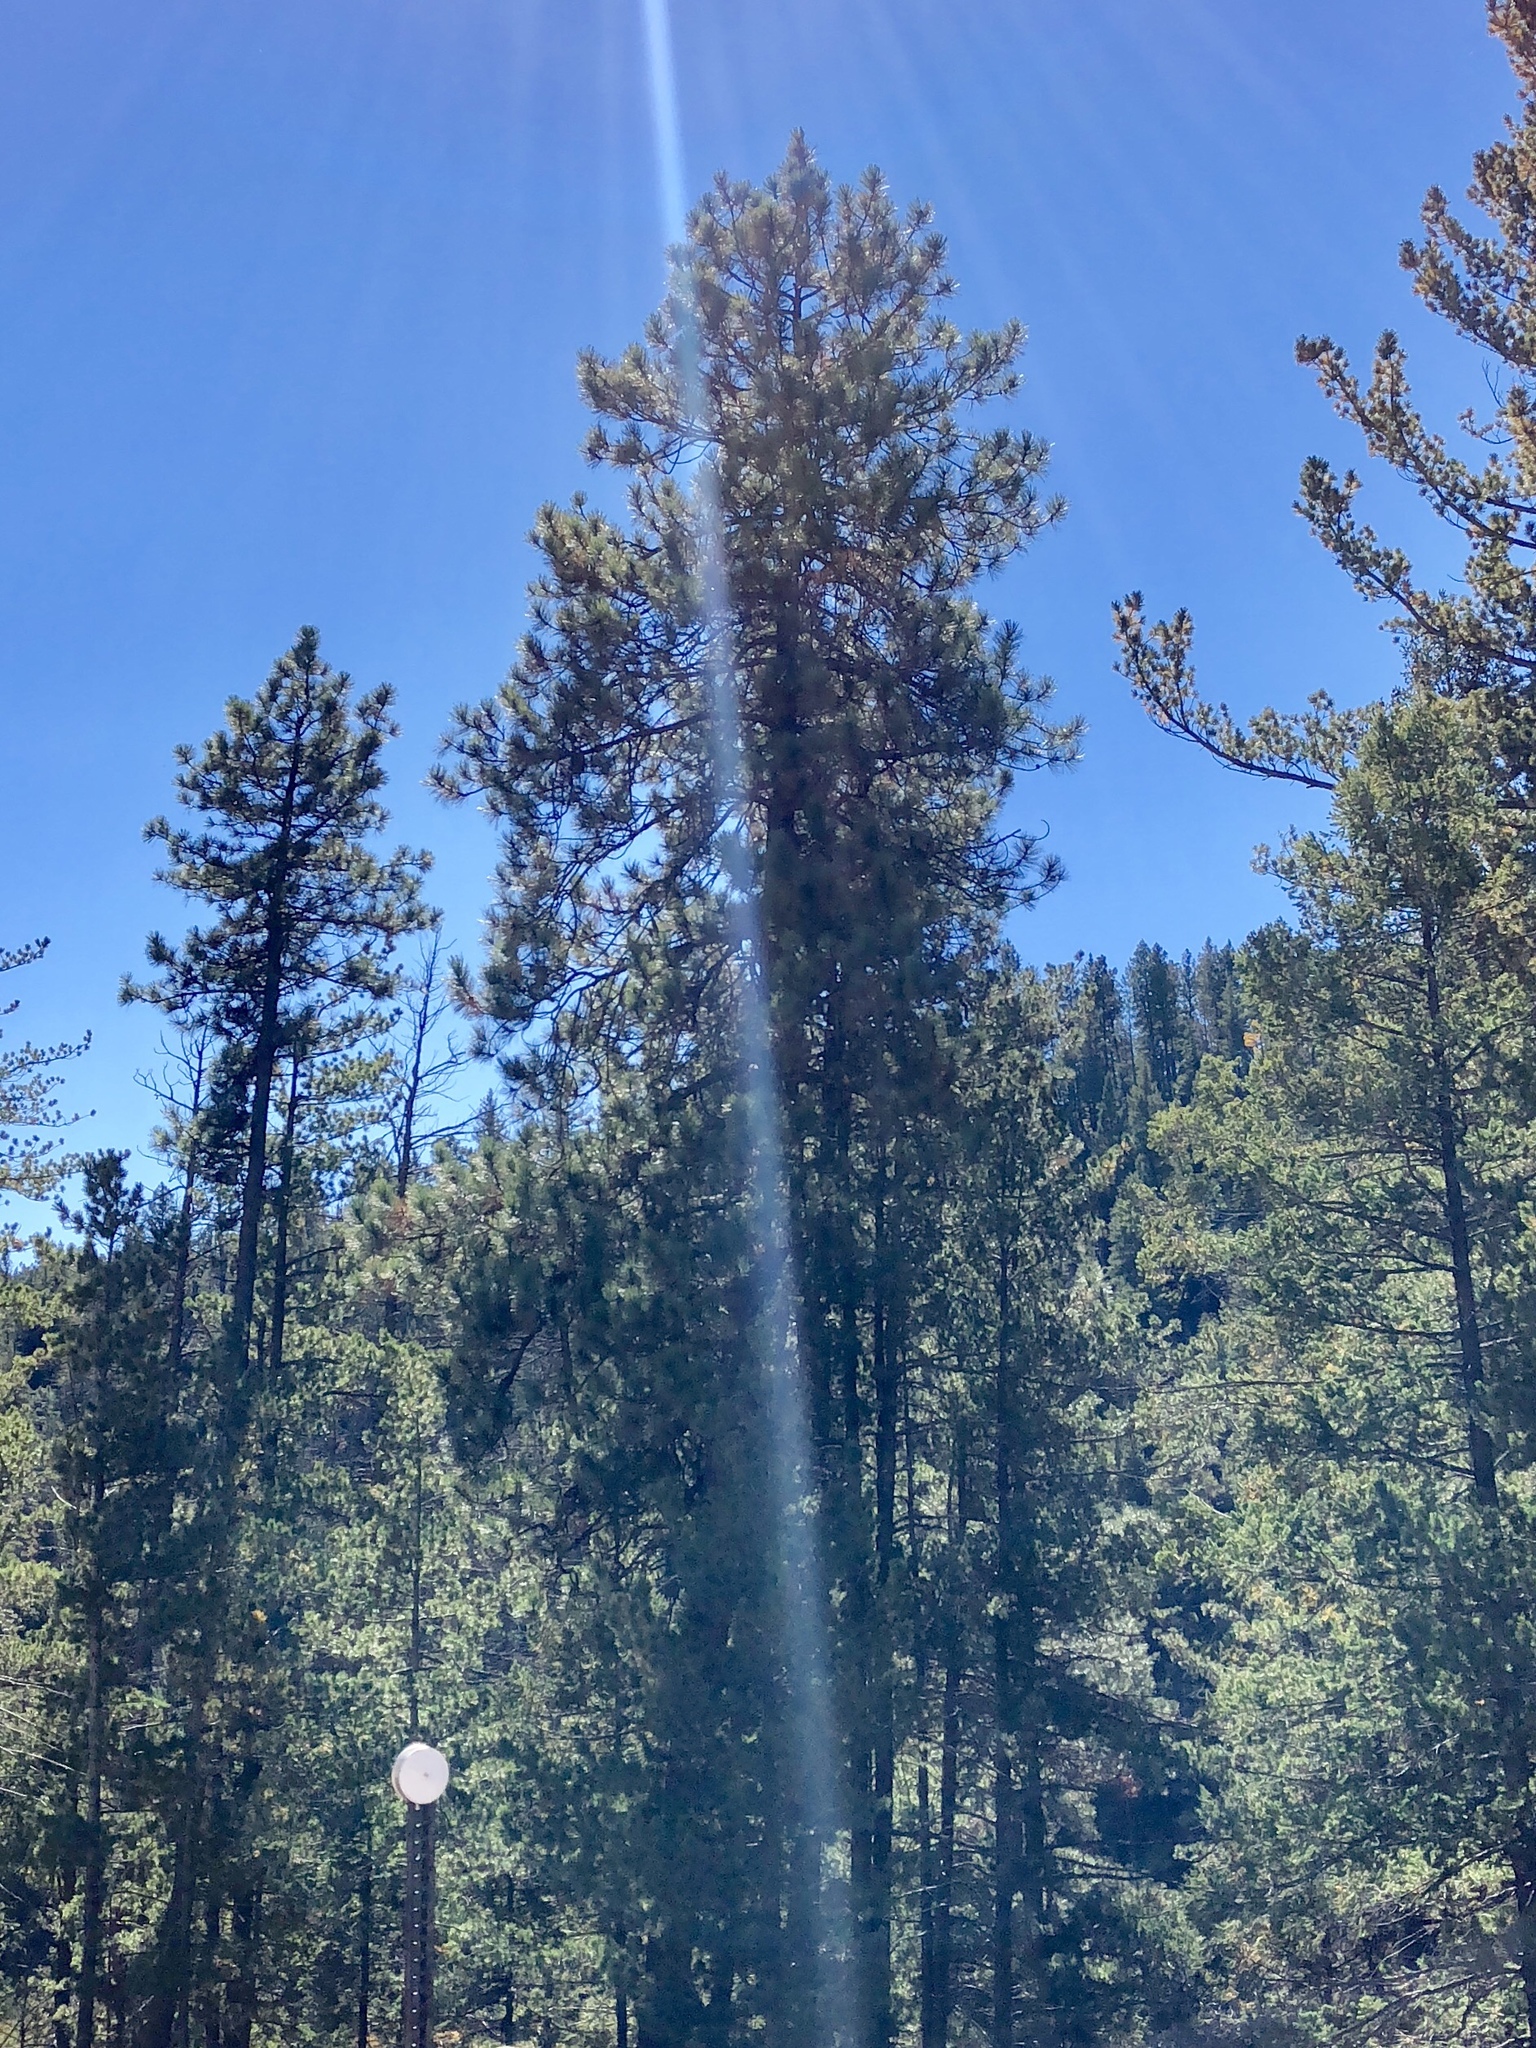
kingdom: Plantae
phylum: Tracheophyta
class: Pinopsida
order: Pinales
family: Pinaceae
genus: Pinus
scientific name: Pinus ponderosa
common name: Western yellow-pine
